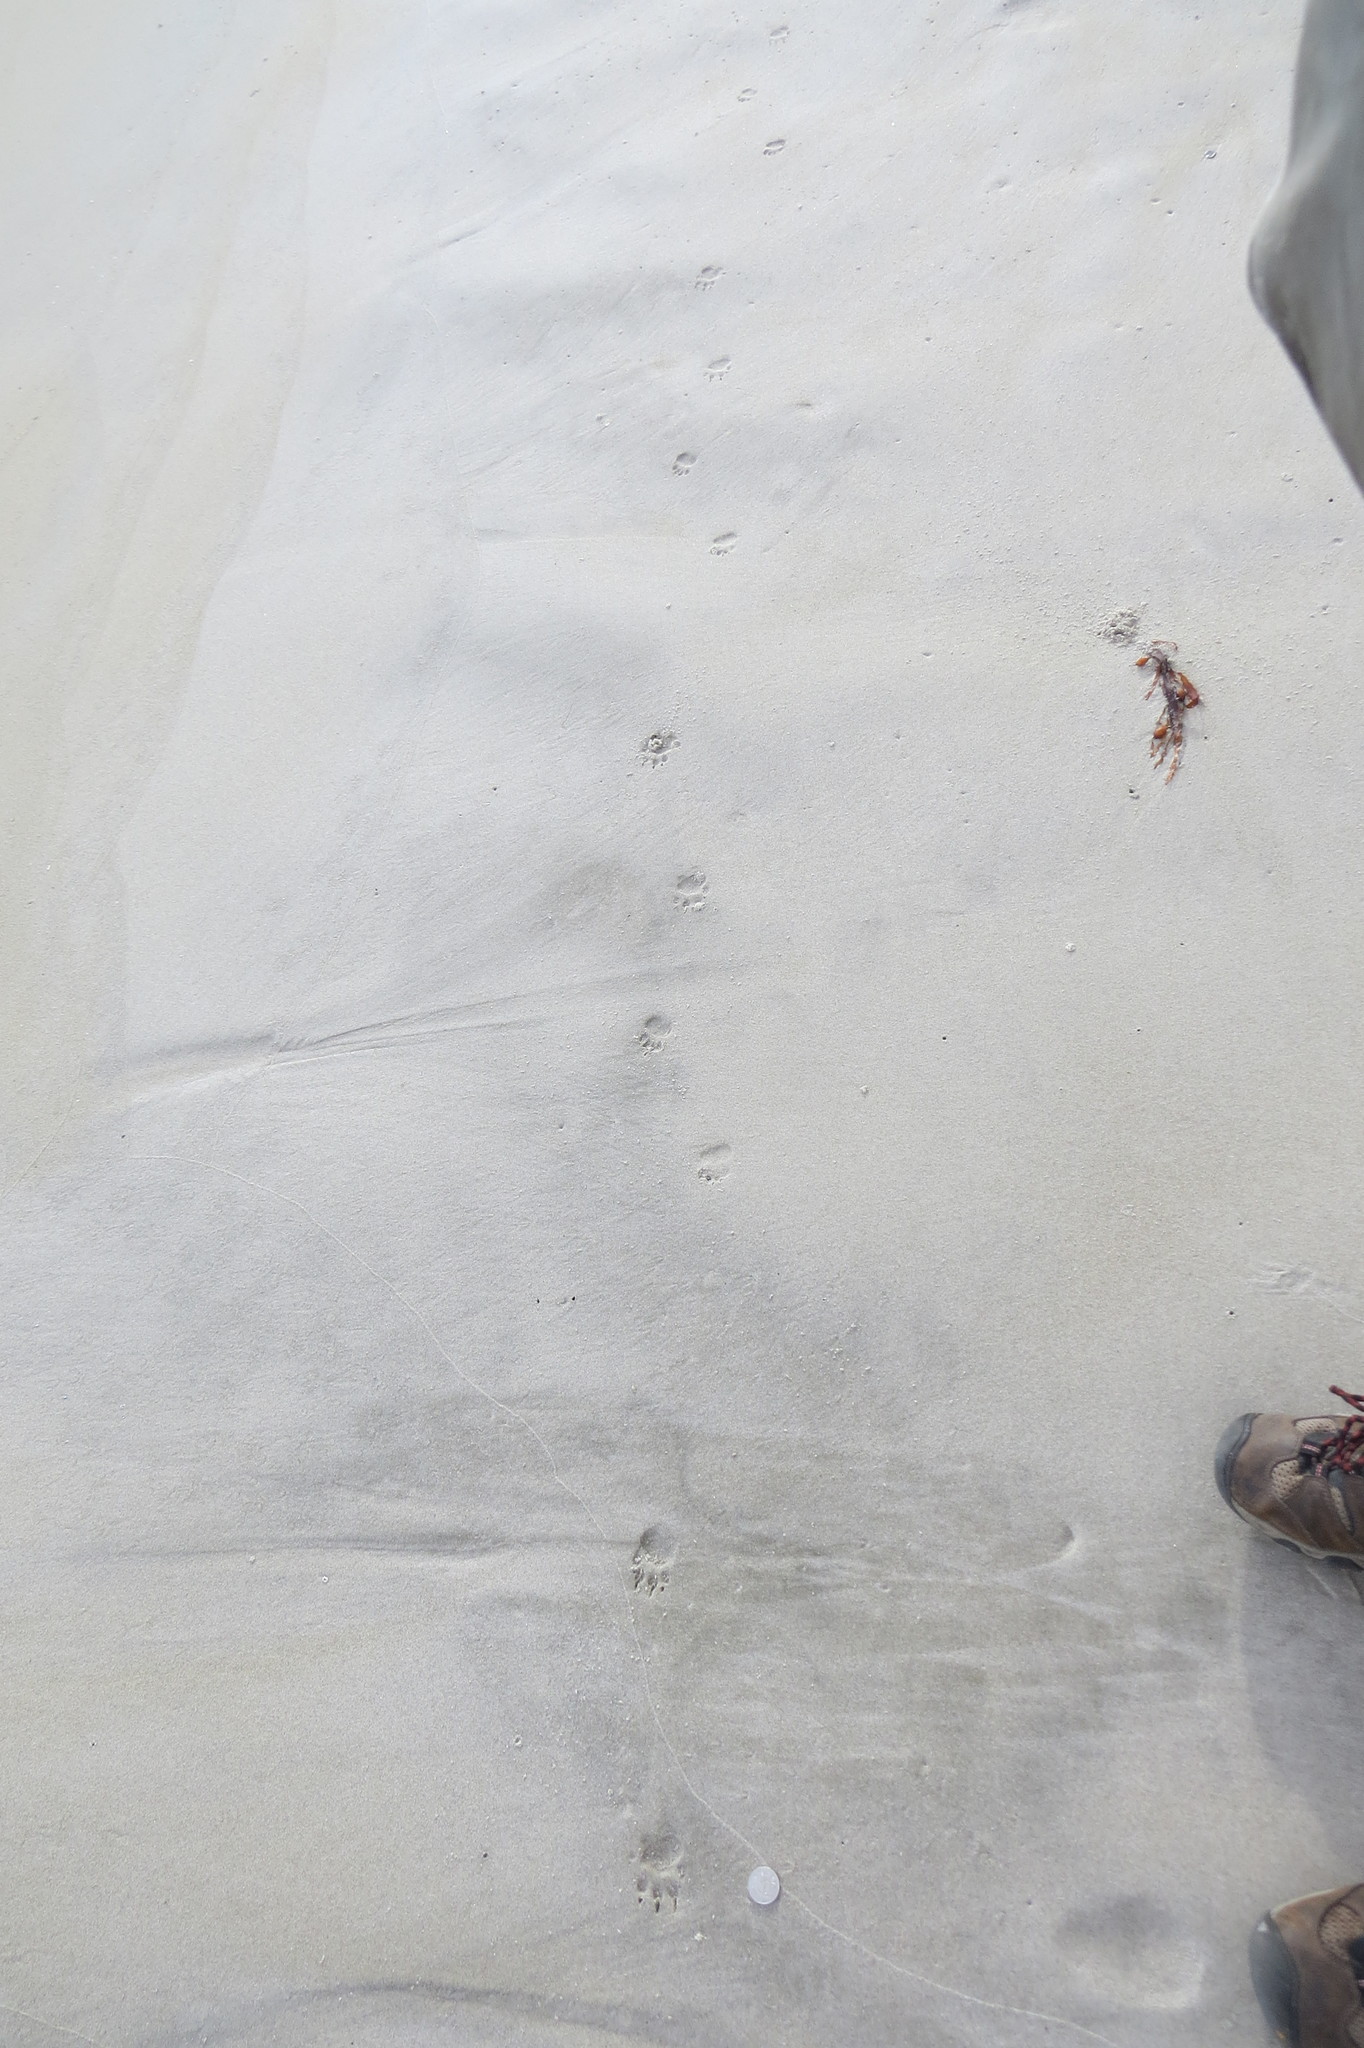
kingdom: Animalia
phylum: Chordata
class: Mammalia
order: Dasyuromorphia
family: Dasyuridae
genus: Sarcophilus
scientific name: Sarcophilus harrisii
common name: Tasmanian devil
